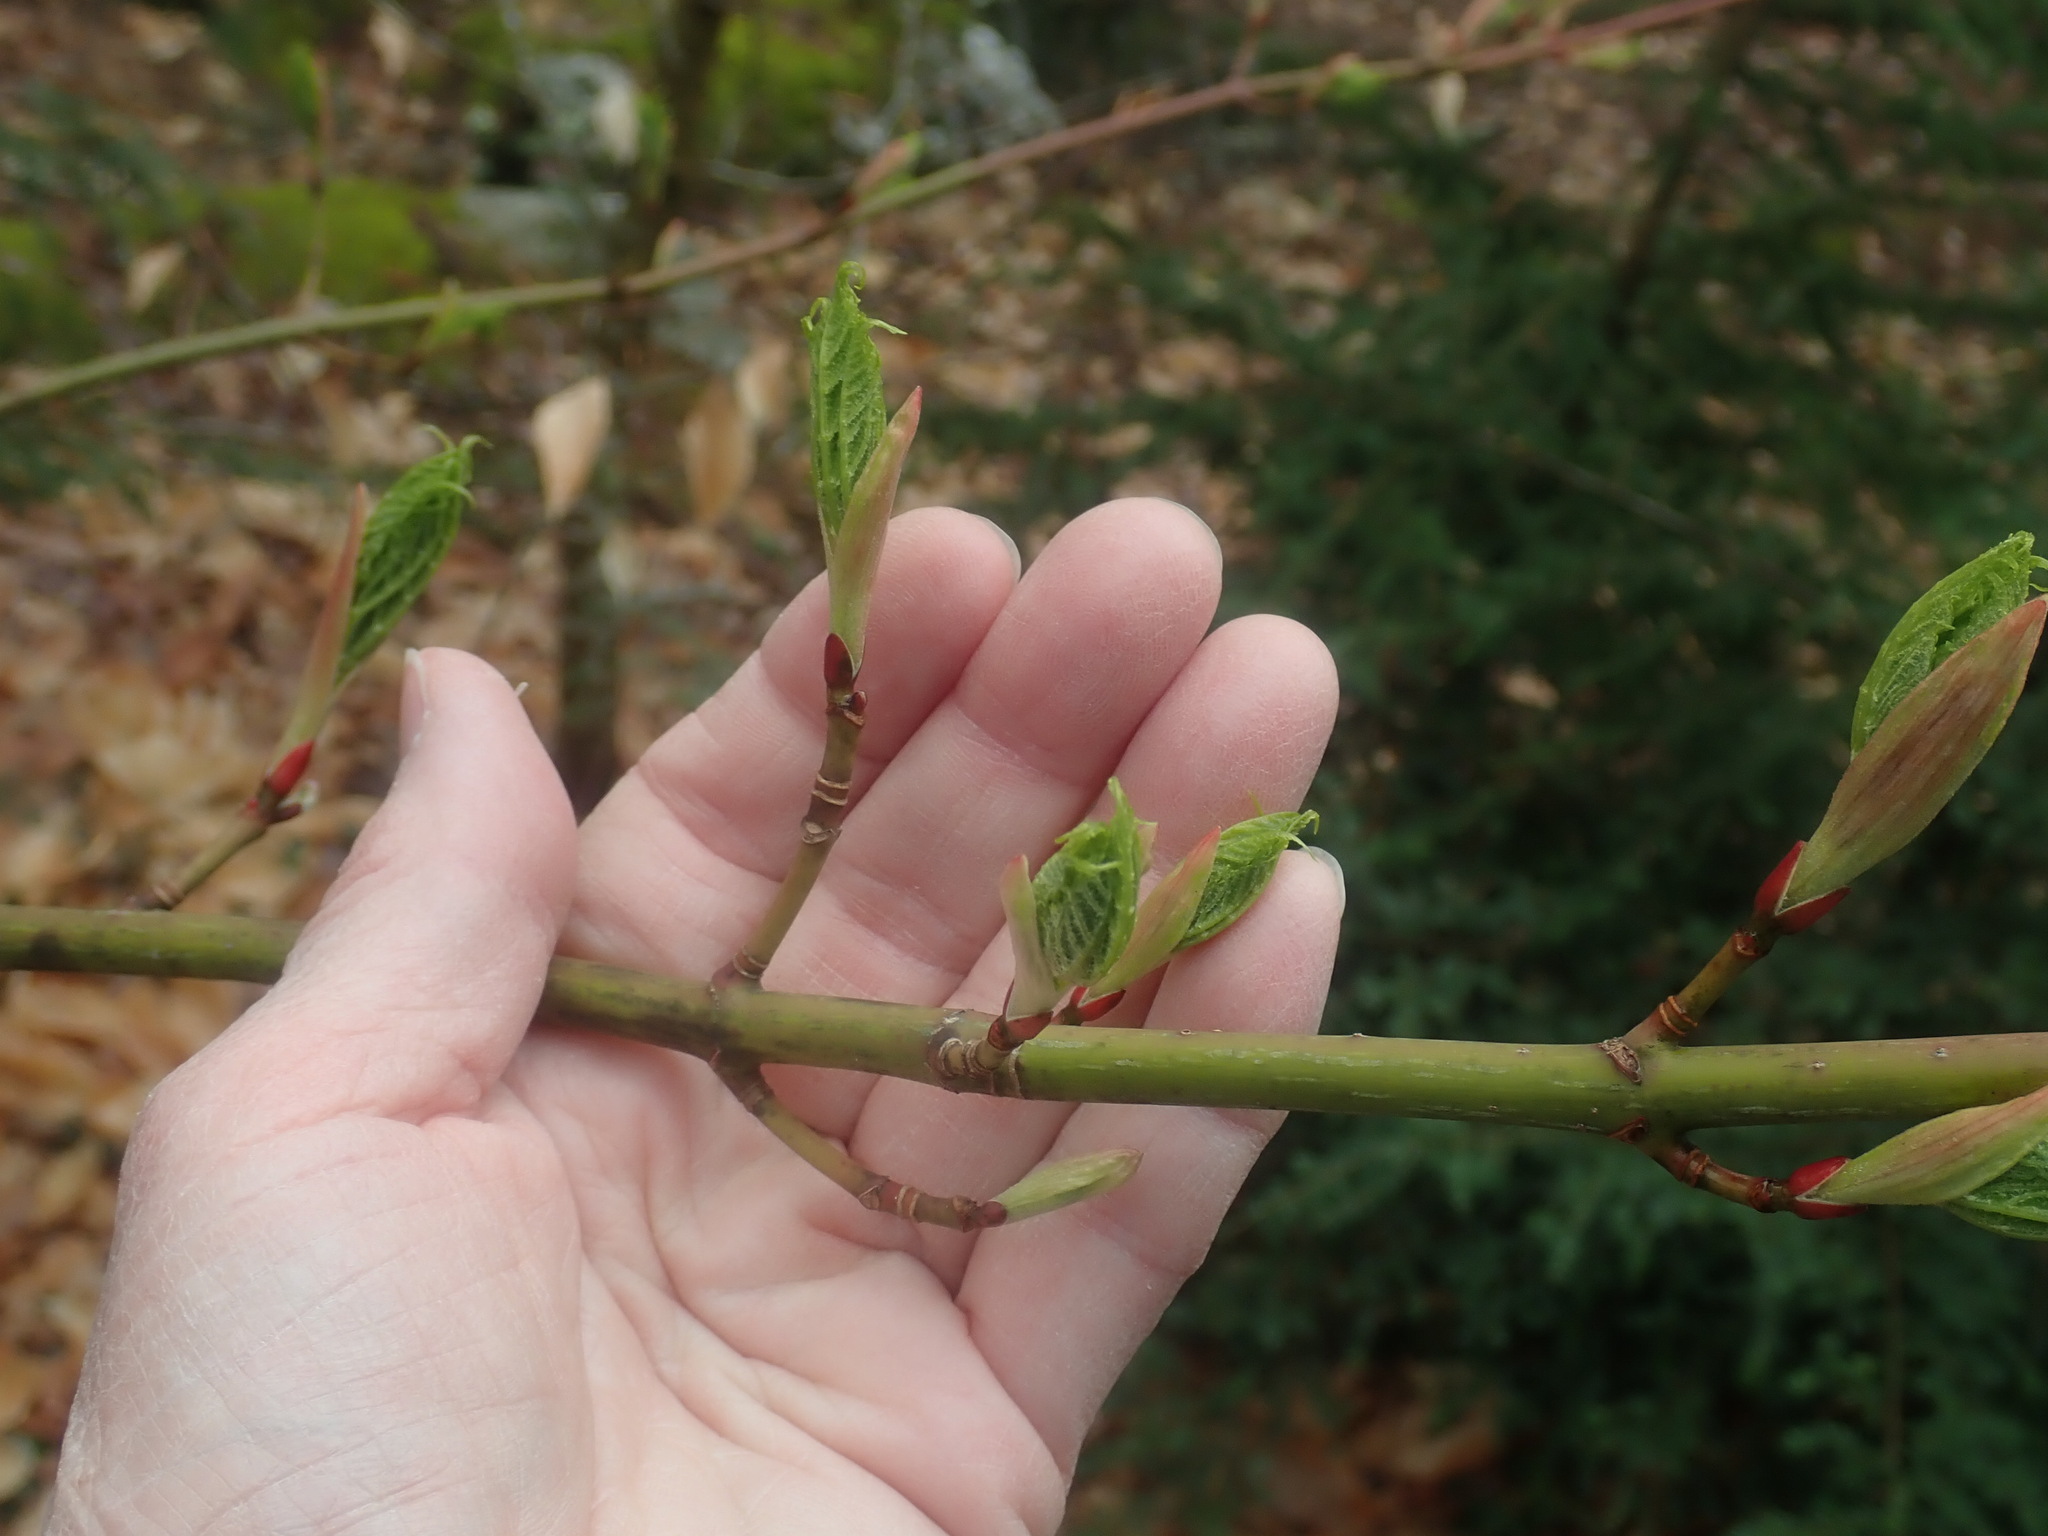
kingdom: Plantae
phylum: Tracheophyta
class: Magnoliopsida
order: Sapindales
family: Sapindaceae
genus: Acer
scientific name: Acer pensylvanicum
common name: Moosewood
